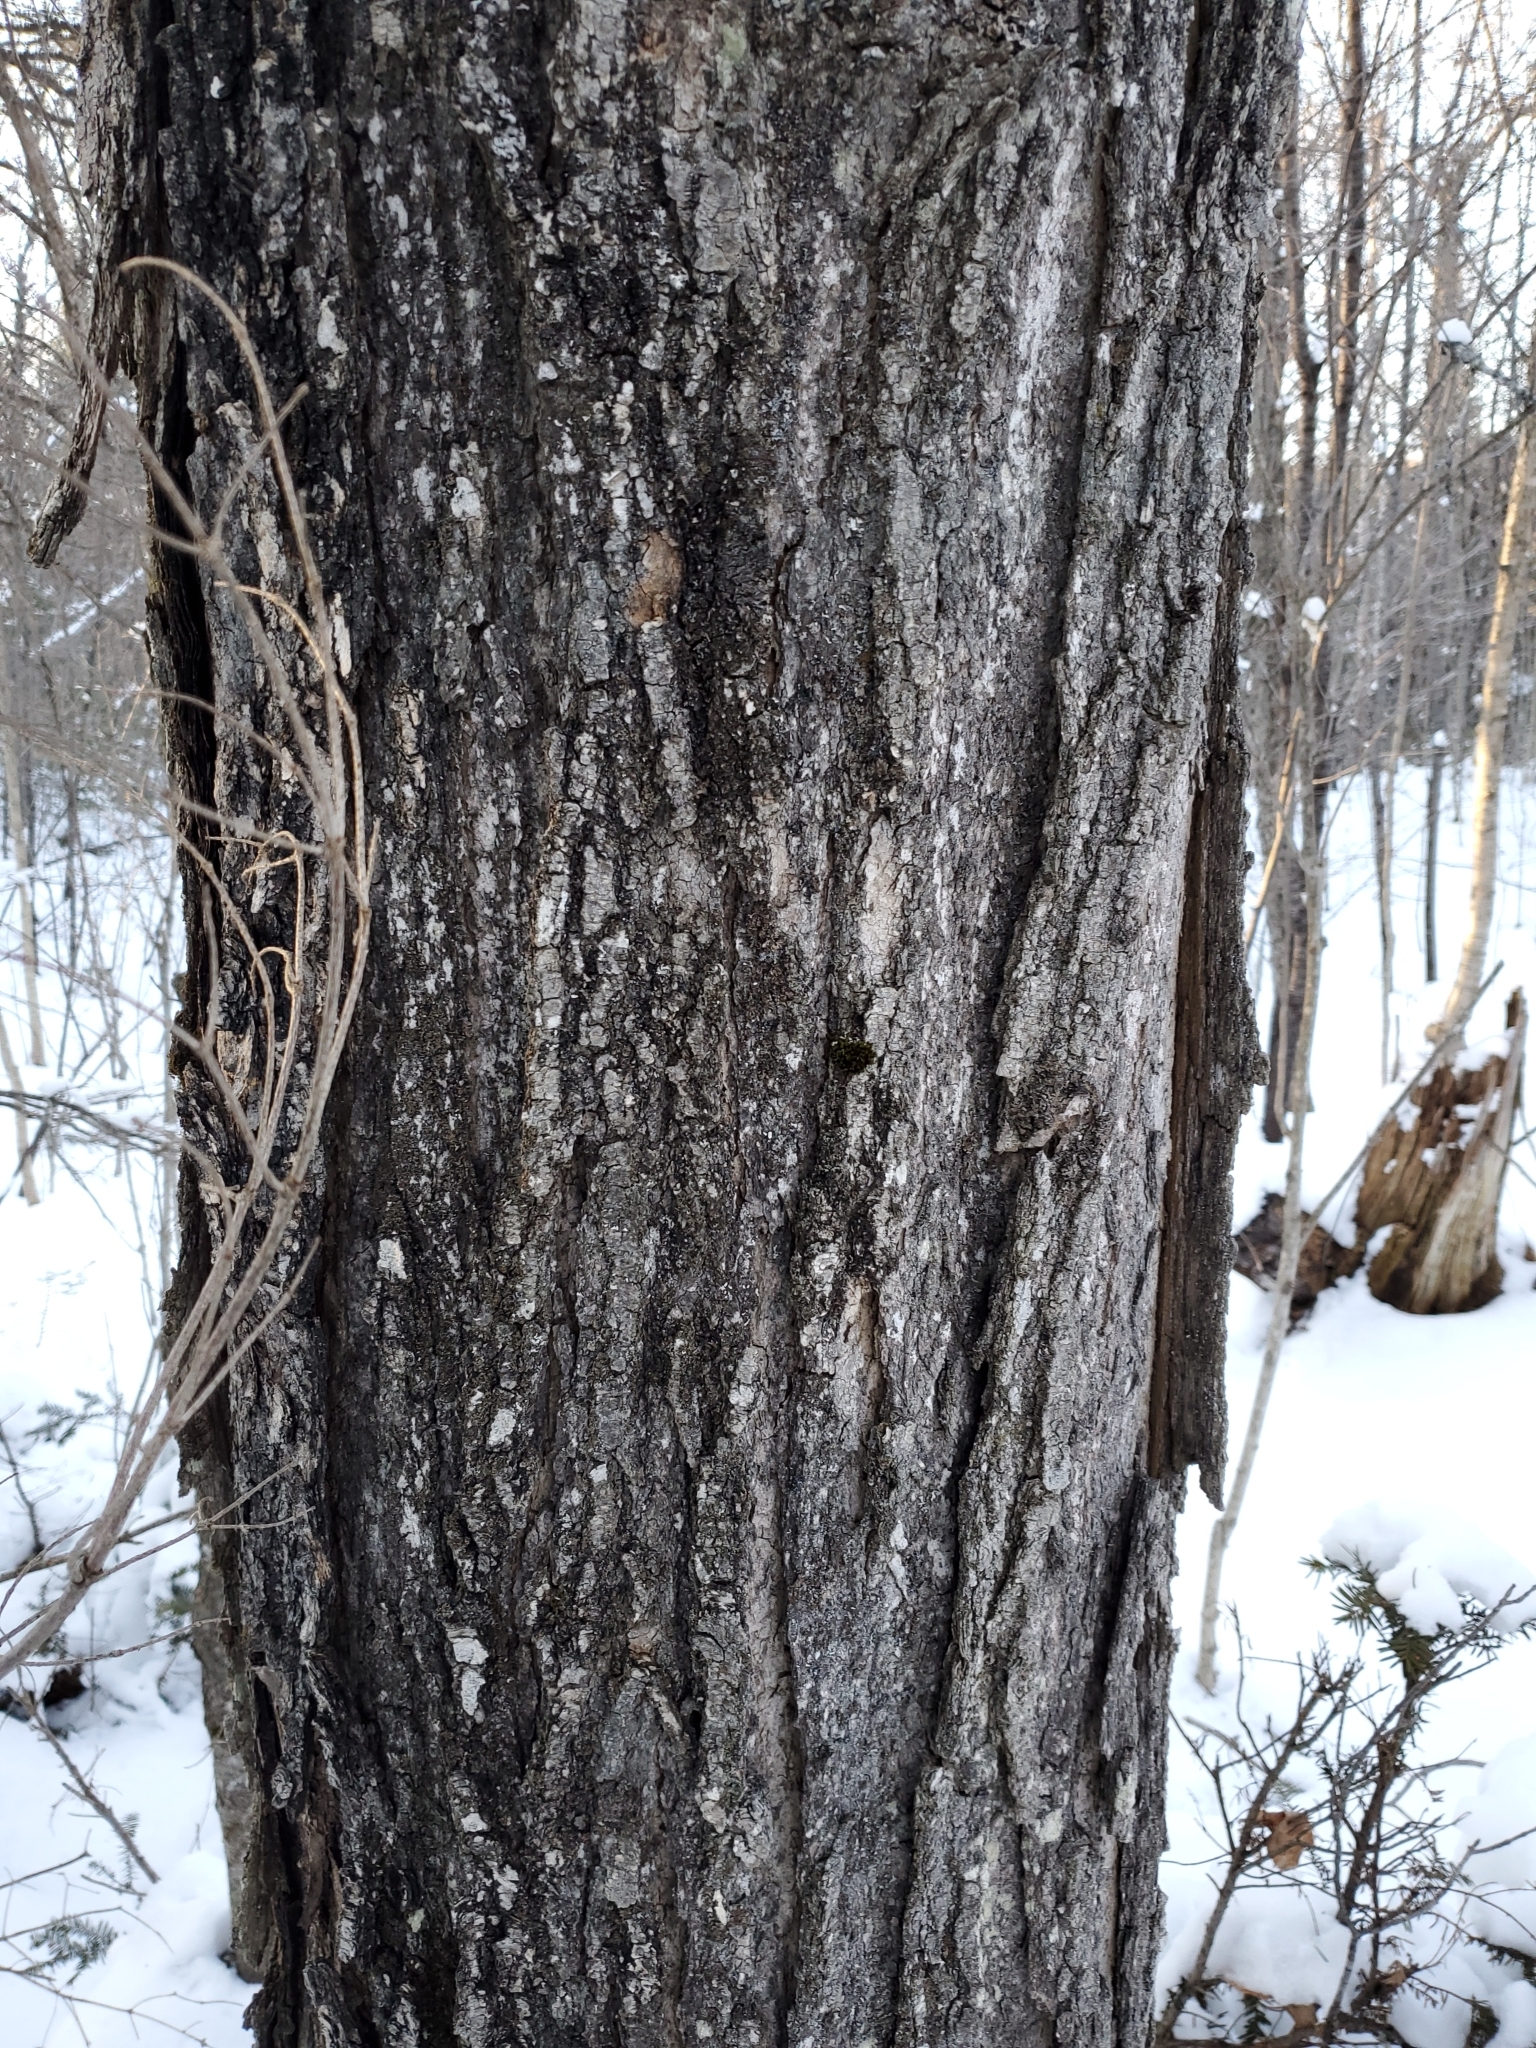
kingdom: Plantae
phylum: Tracheophyta
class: Magnoliopsida
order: Sapindales
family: Sapindaceae
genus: Acer
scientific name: Acer saccharum
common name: Sugar maple
